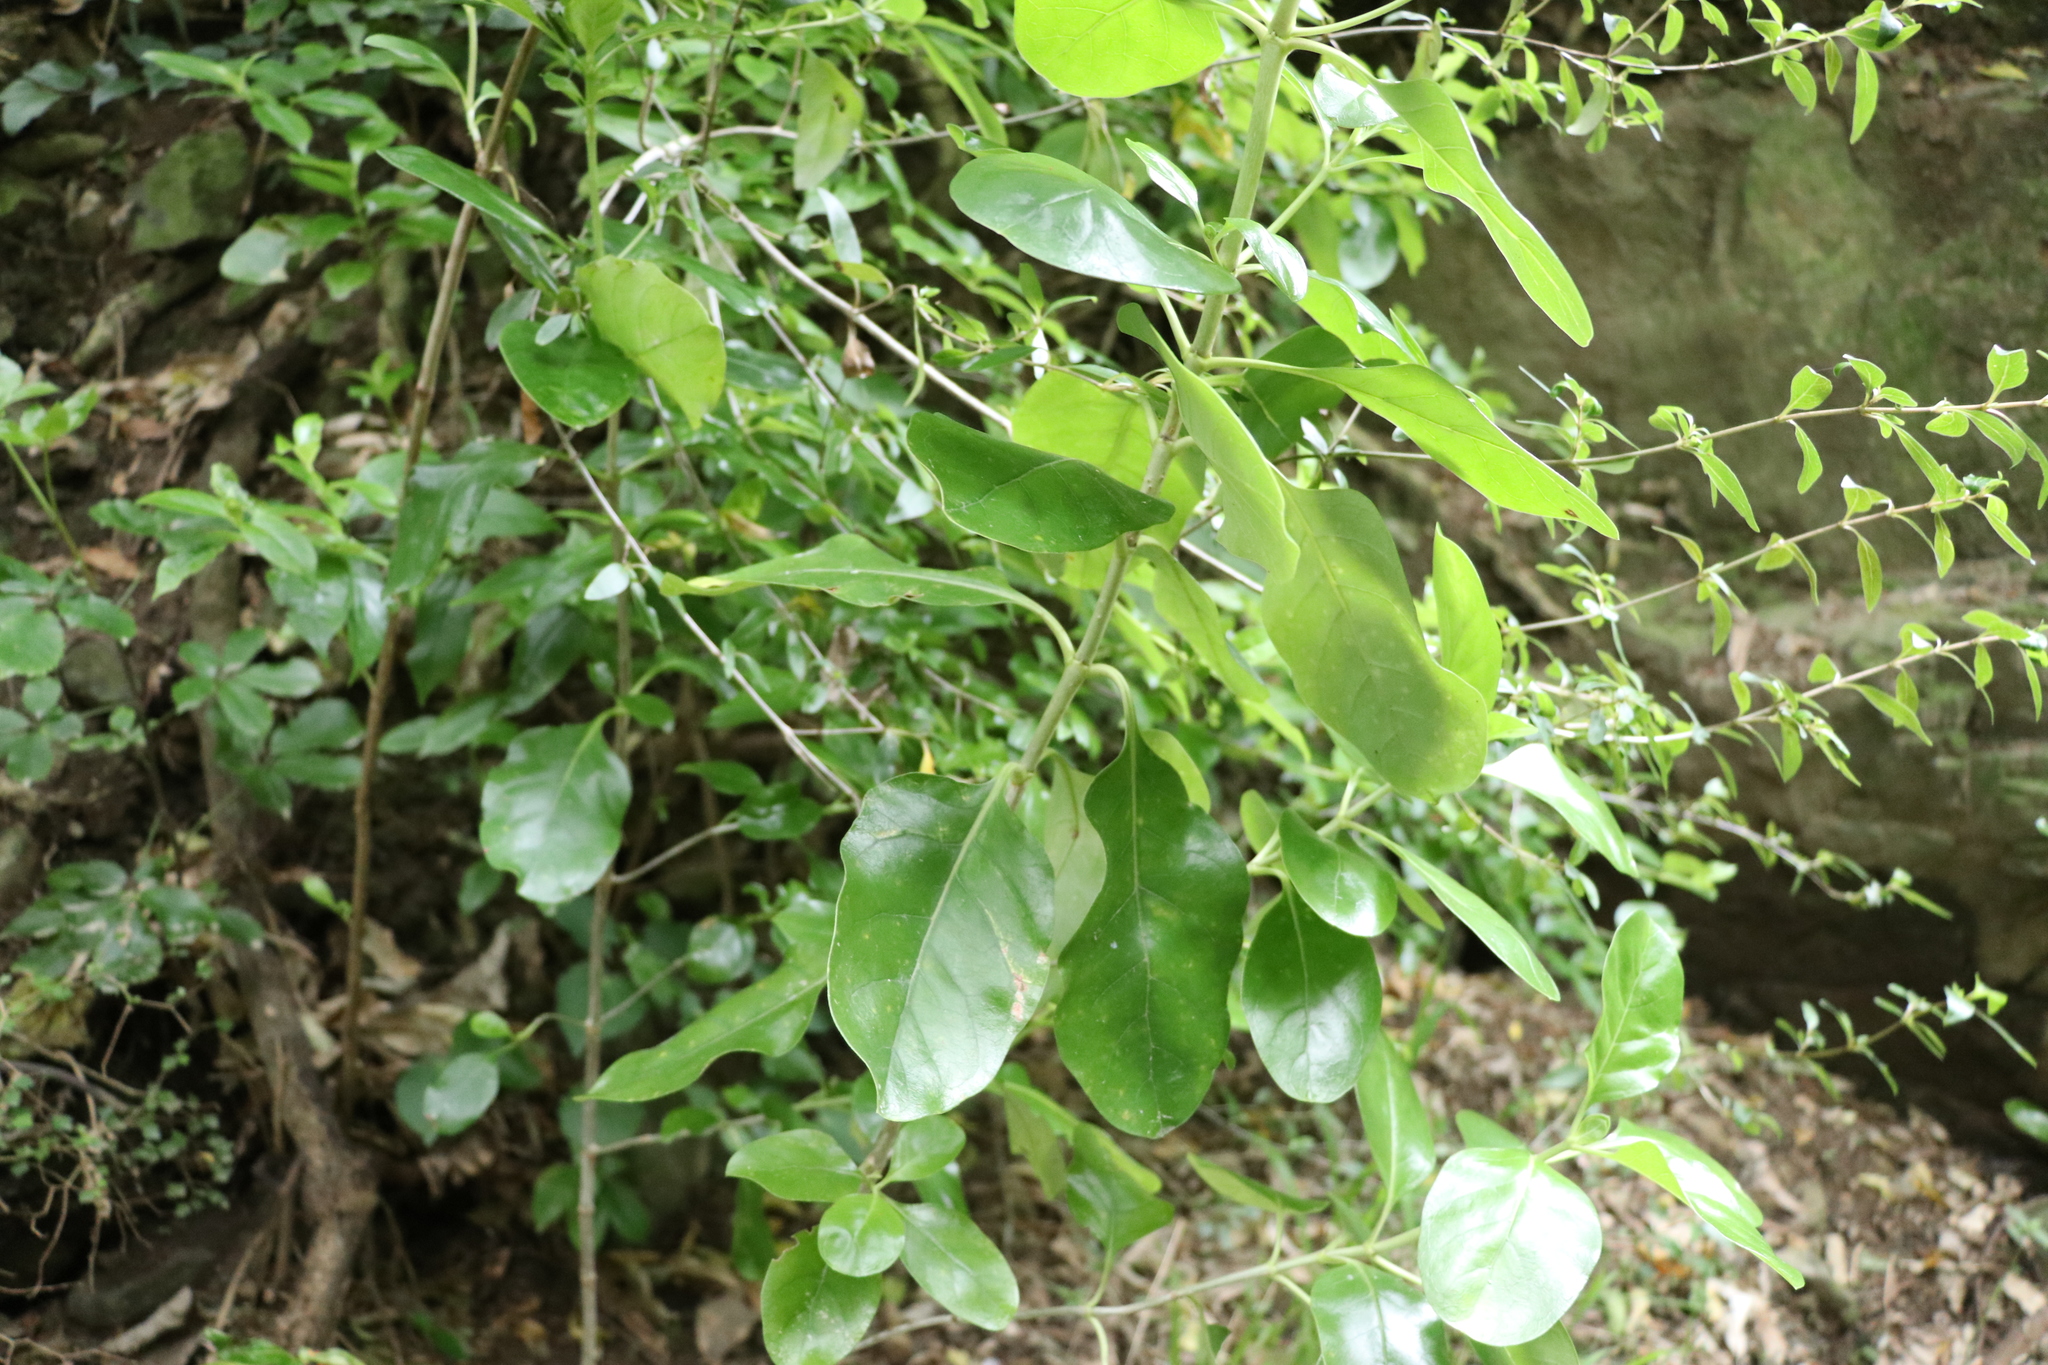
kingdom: Plantae
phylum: Tracheophyta
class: Magnoliopsida
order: Gentianales
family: Rubiaceae
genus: Coprosma
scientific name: Coprosma autumnalis
